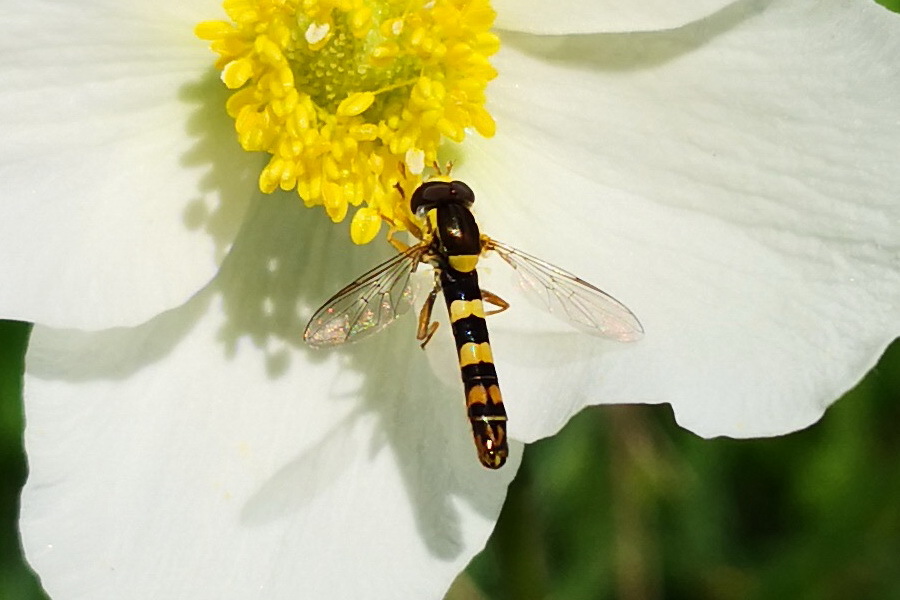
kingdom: Animalia
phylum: Arthropoda
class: Insecta
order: Diptera
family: Syrphidae
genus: Sphaerophoria
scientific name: Sphaerophoria scripta
